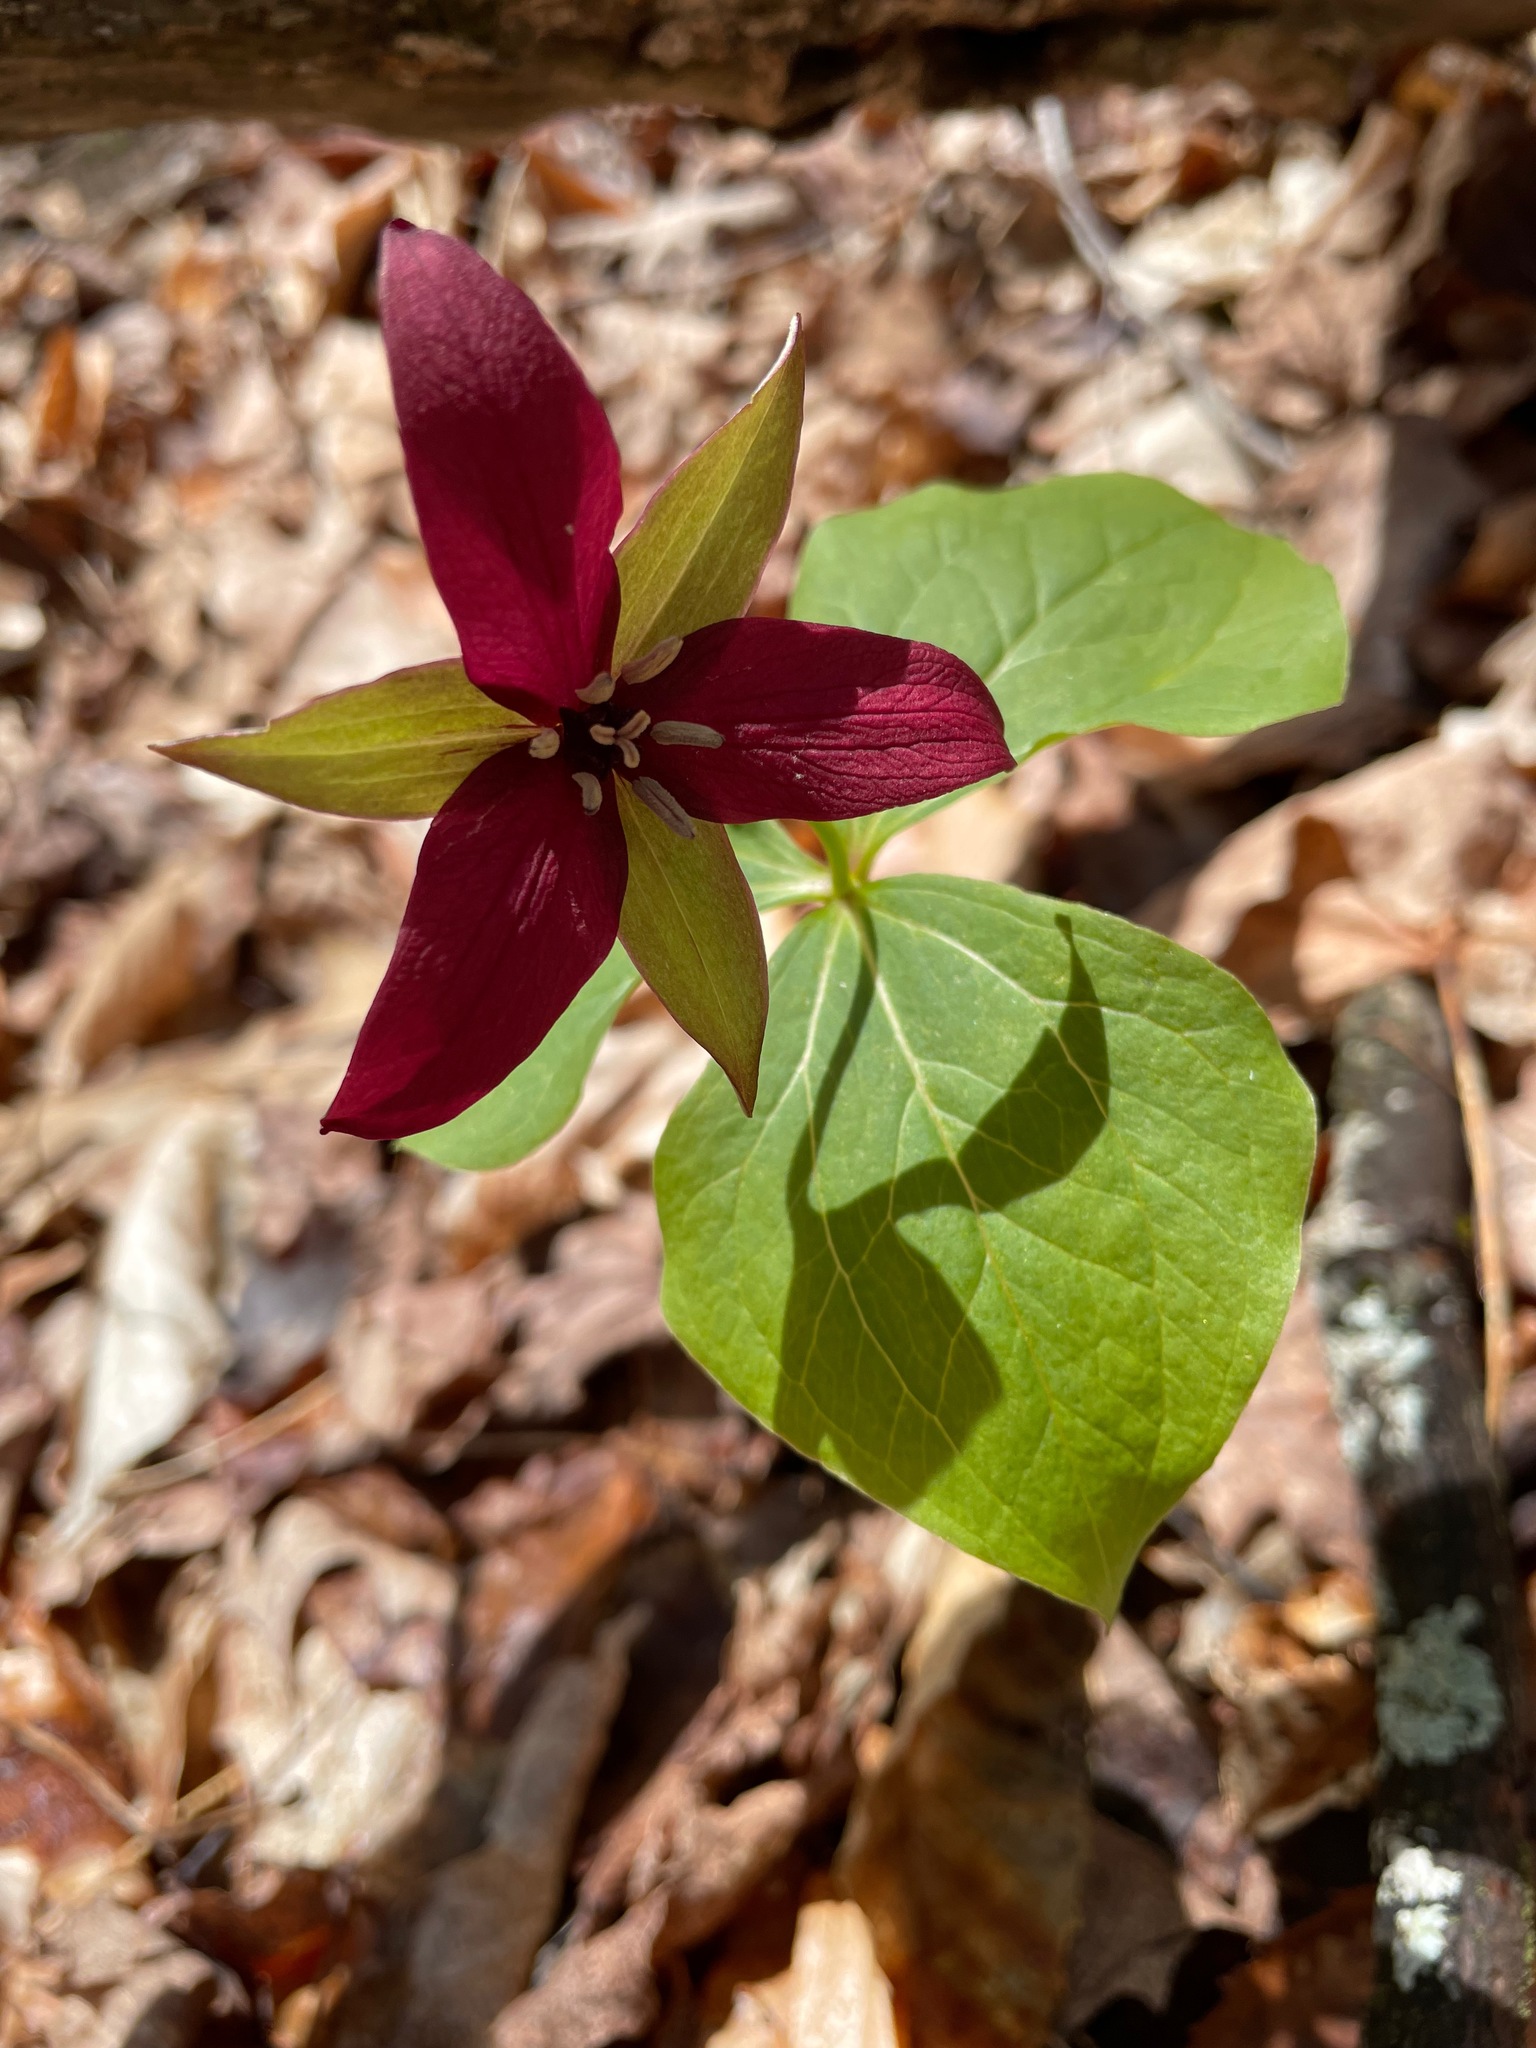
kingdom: Plantae
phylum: Tracheophyta
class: Liliopsida
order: Liliales
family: Melanthiaceae
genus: Trillium
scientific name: Trillium erectum
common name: Purple trillium
